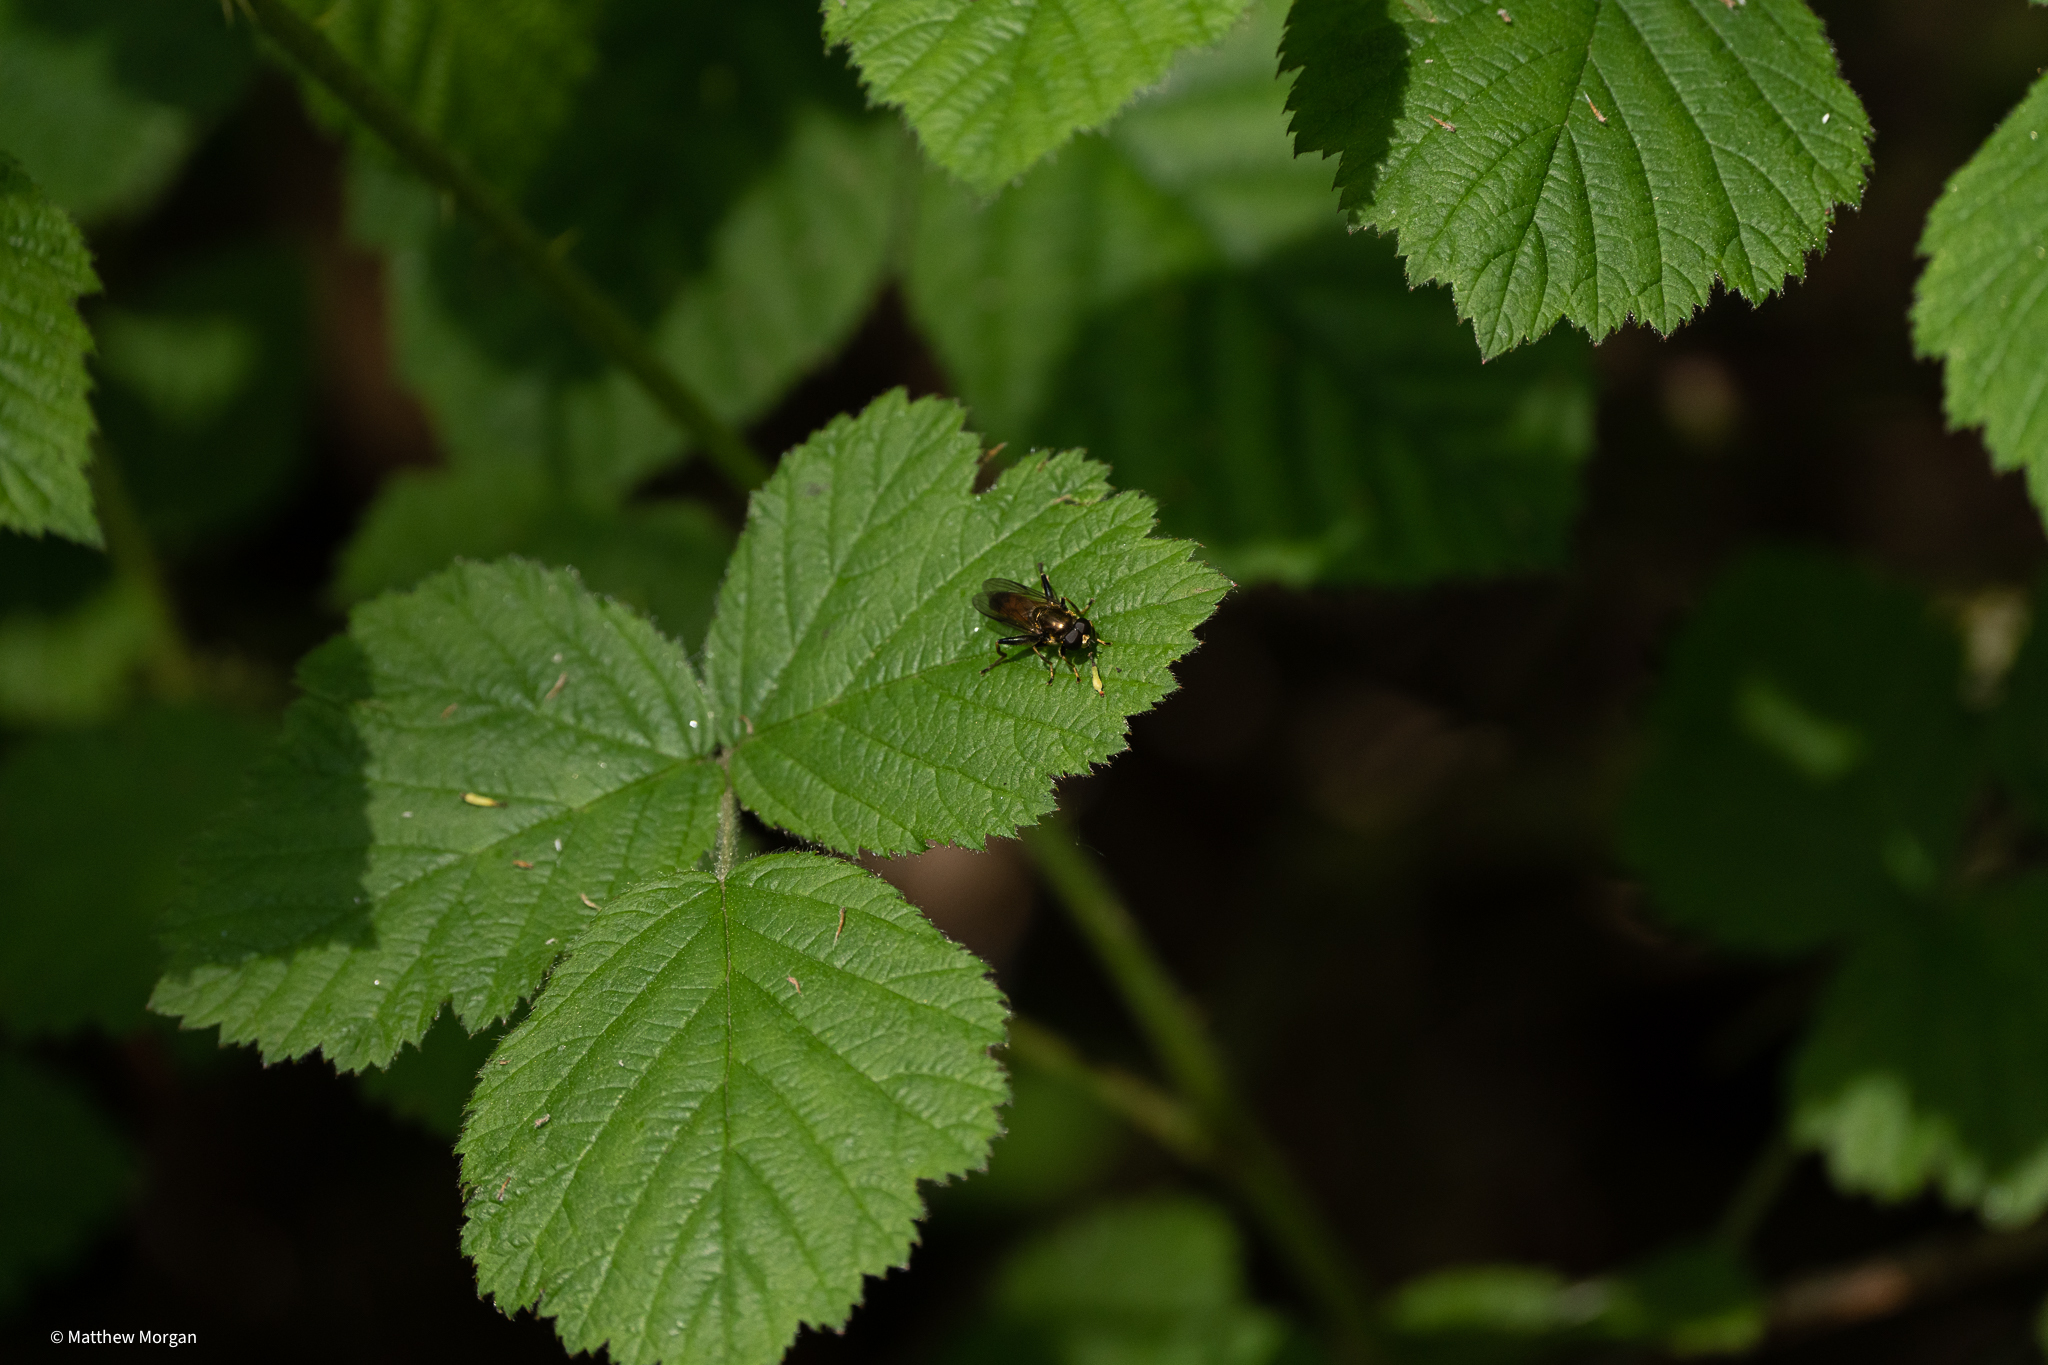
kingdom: Animalia
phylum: Arthropoda
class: Insecta
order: Diptera
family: Syrphidae
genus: Xylota
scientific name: Xylota segnis
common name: Brown-toed forest fly
